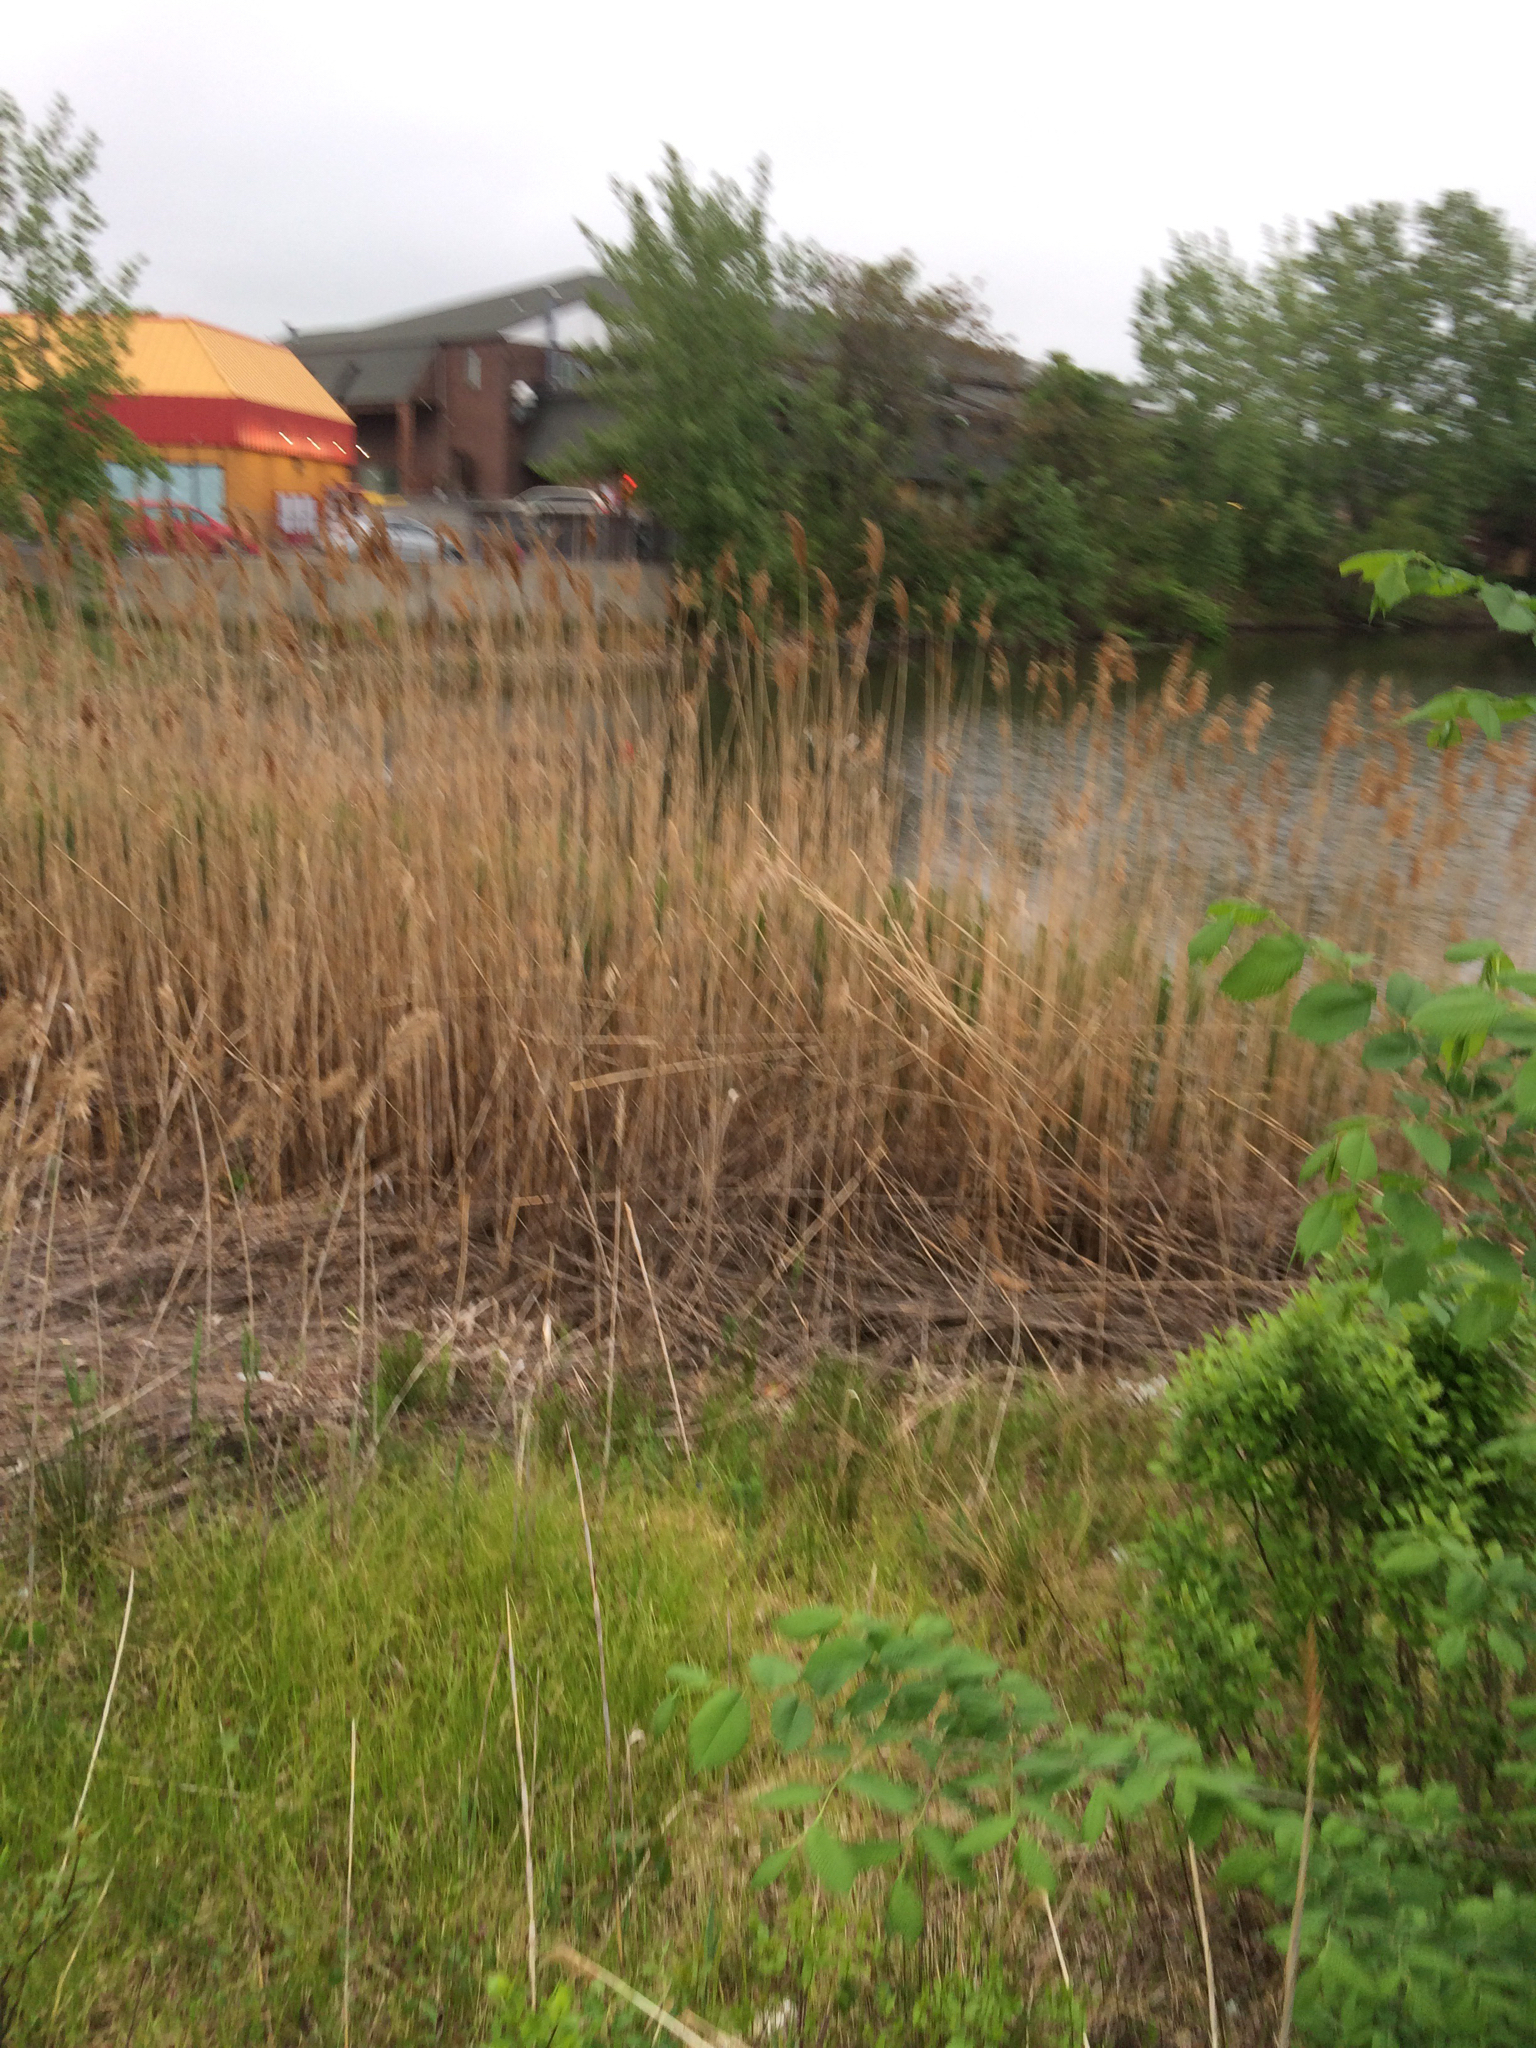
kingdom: Plantae
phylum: Tracheophyta
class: Liliopsida
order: Poales
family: Poaceae
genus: Phragmites
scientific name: Phragmites australis
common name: Common reed
